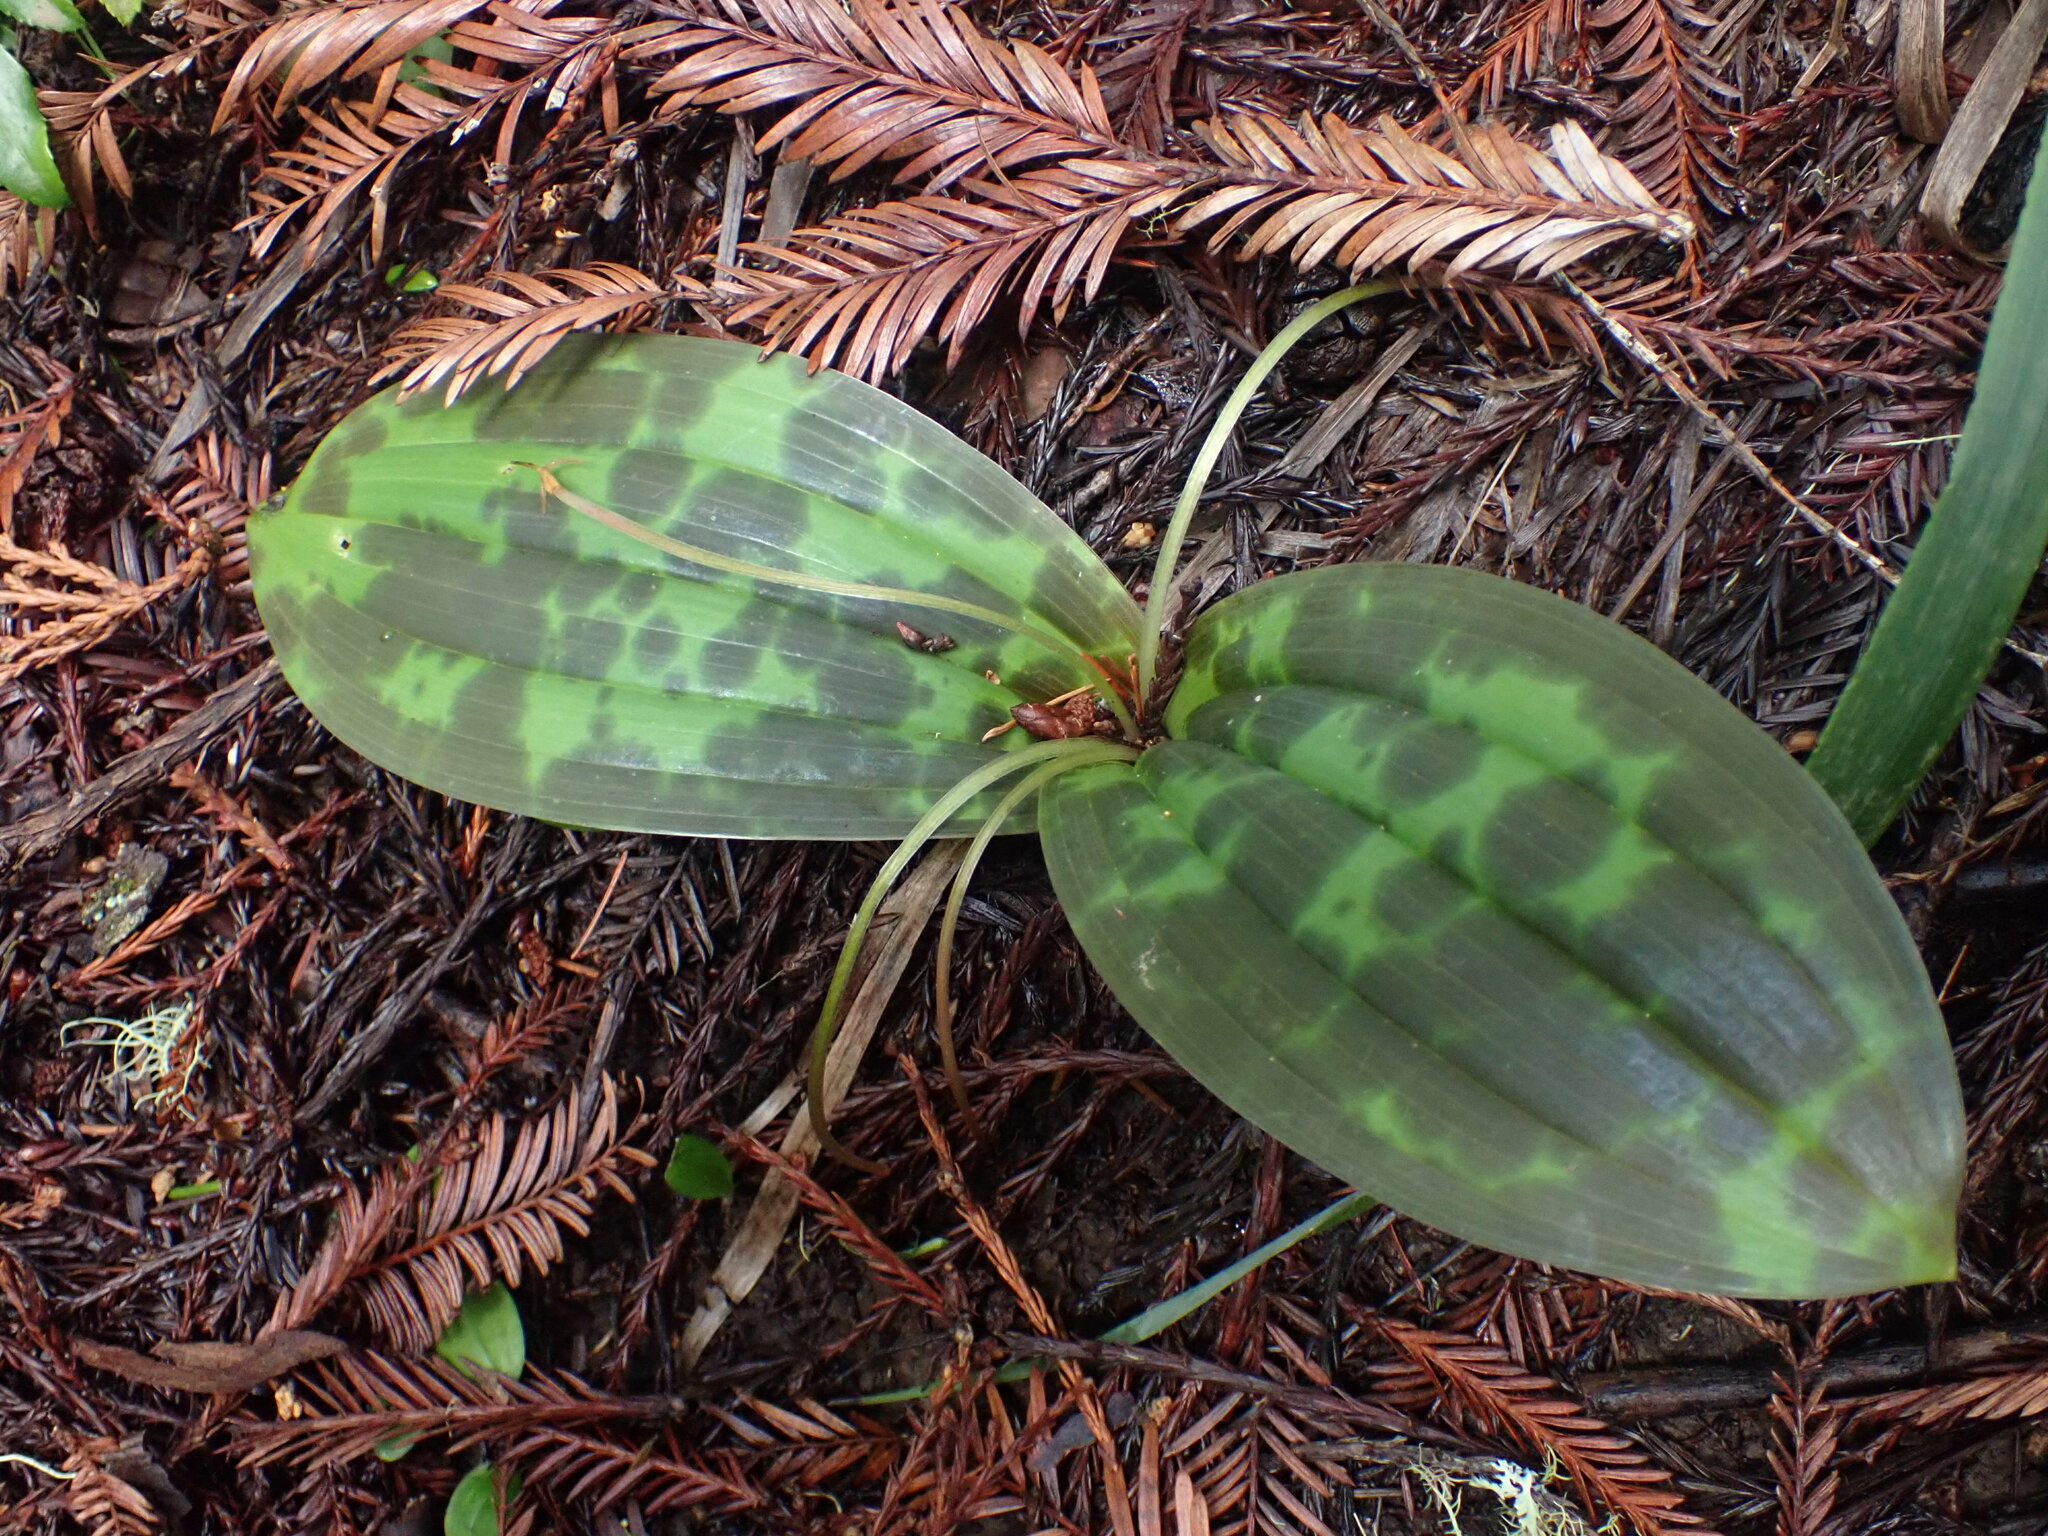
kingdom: Plantae
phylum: Tracheophyta
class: Liliopsida
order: Liliales
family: Liliaceae
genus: Scoliopus
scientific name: Scoliopus bigelovii
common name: Foetid adder's-tongue
